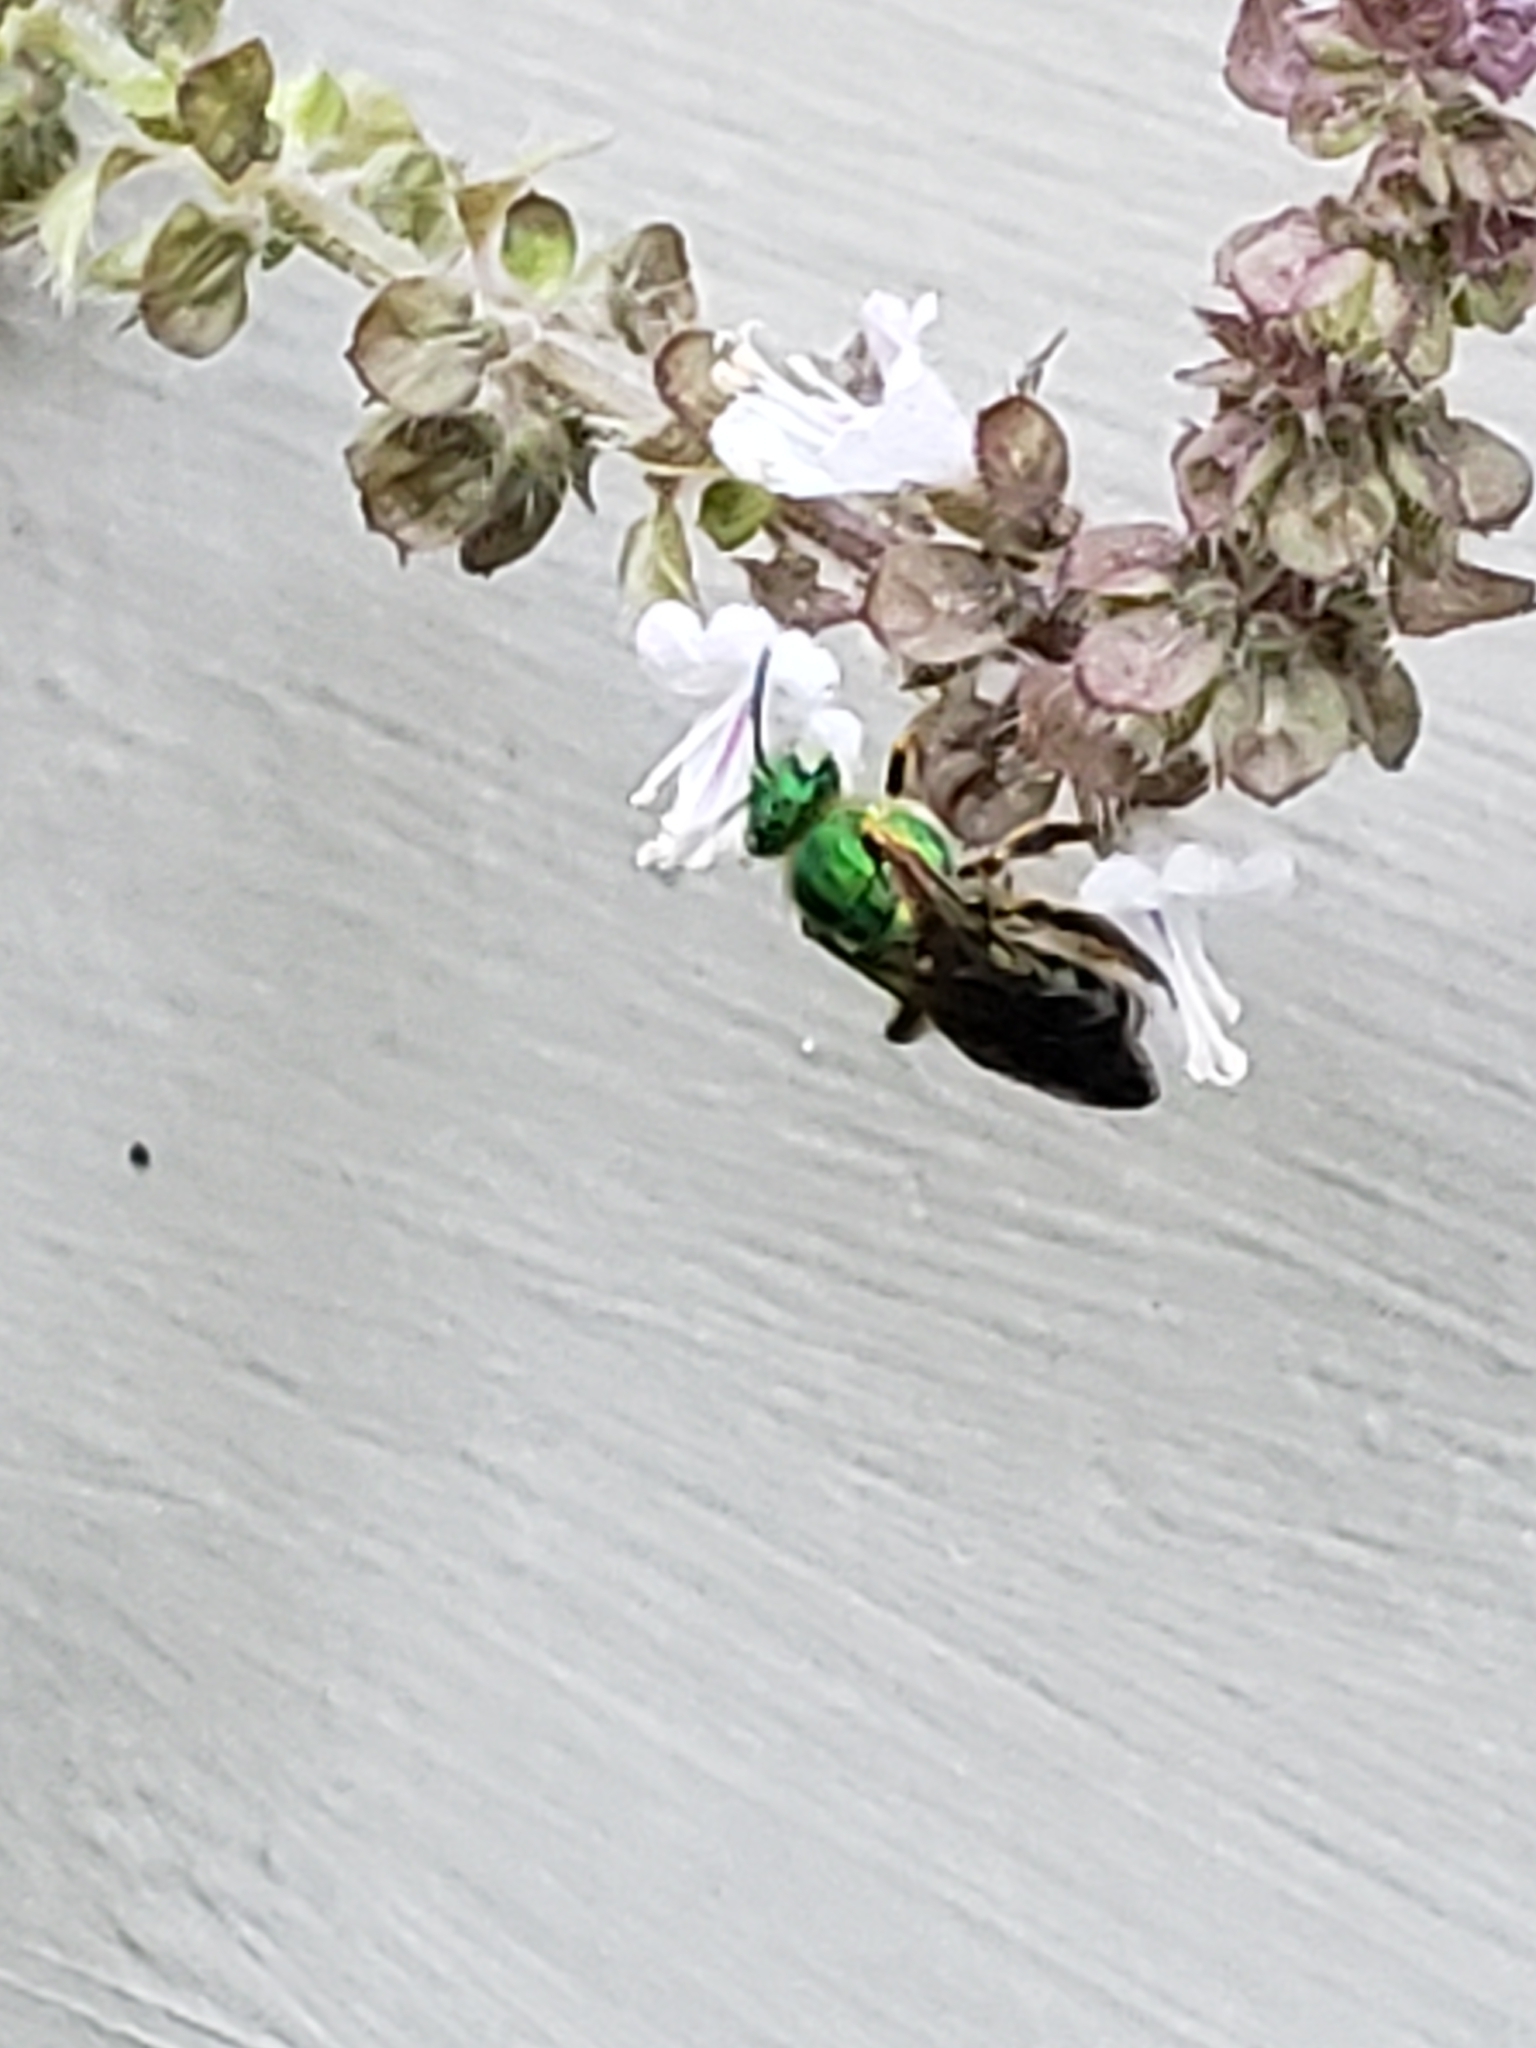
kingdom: Animalia
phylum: Arthropoda
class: Insecta
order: Hymenoptera
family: Halictidae
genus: Agapostemon
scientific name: Agapostemon splendens
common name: Brown-winged striped sweat bee
